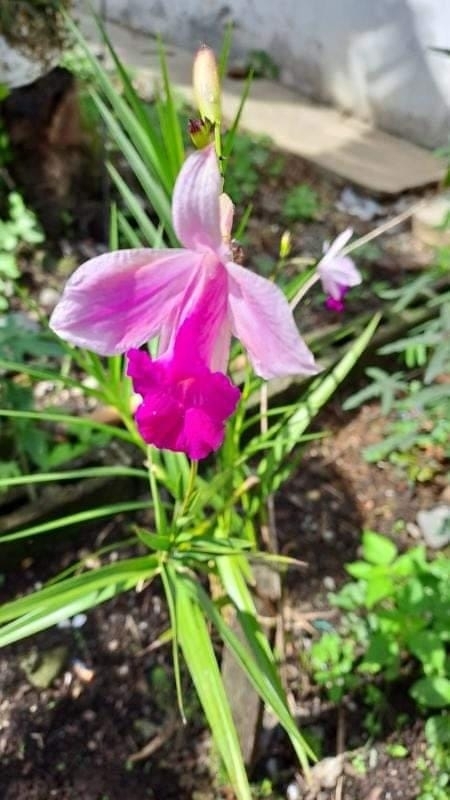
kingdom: Plantae
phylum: Tracheophyta
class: Liliopsida
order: Asparagales
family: Orchidaceae
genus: Arundina
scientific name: Arundina graminifolia
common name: Bamboo orchid
